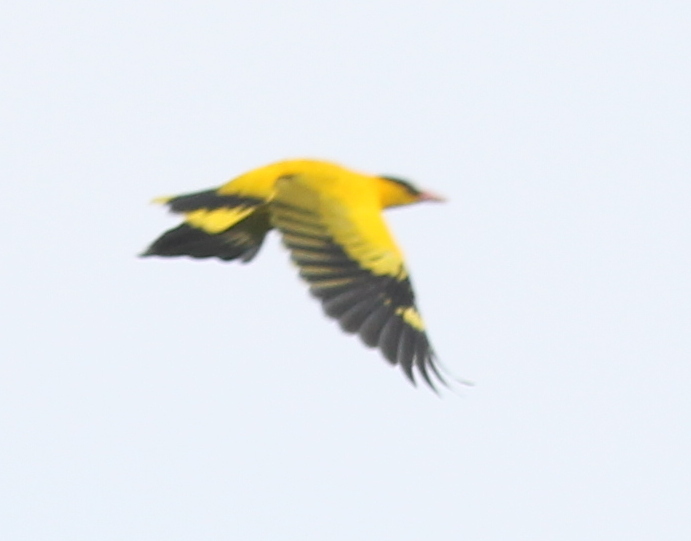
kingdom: Animalia
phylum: Chordata
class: Aves
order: Passeriformes
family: Oriolidae
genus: Oriolus
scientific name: Oriolus chinensis
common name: Black-naped oriole
